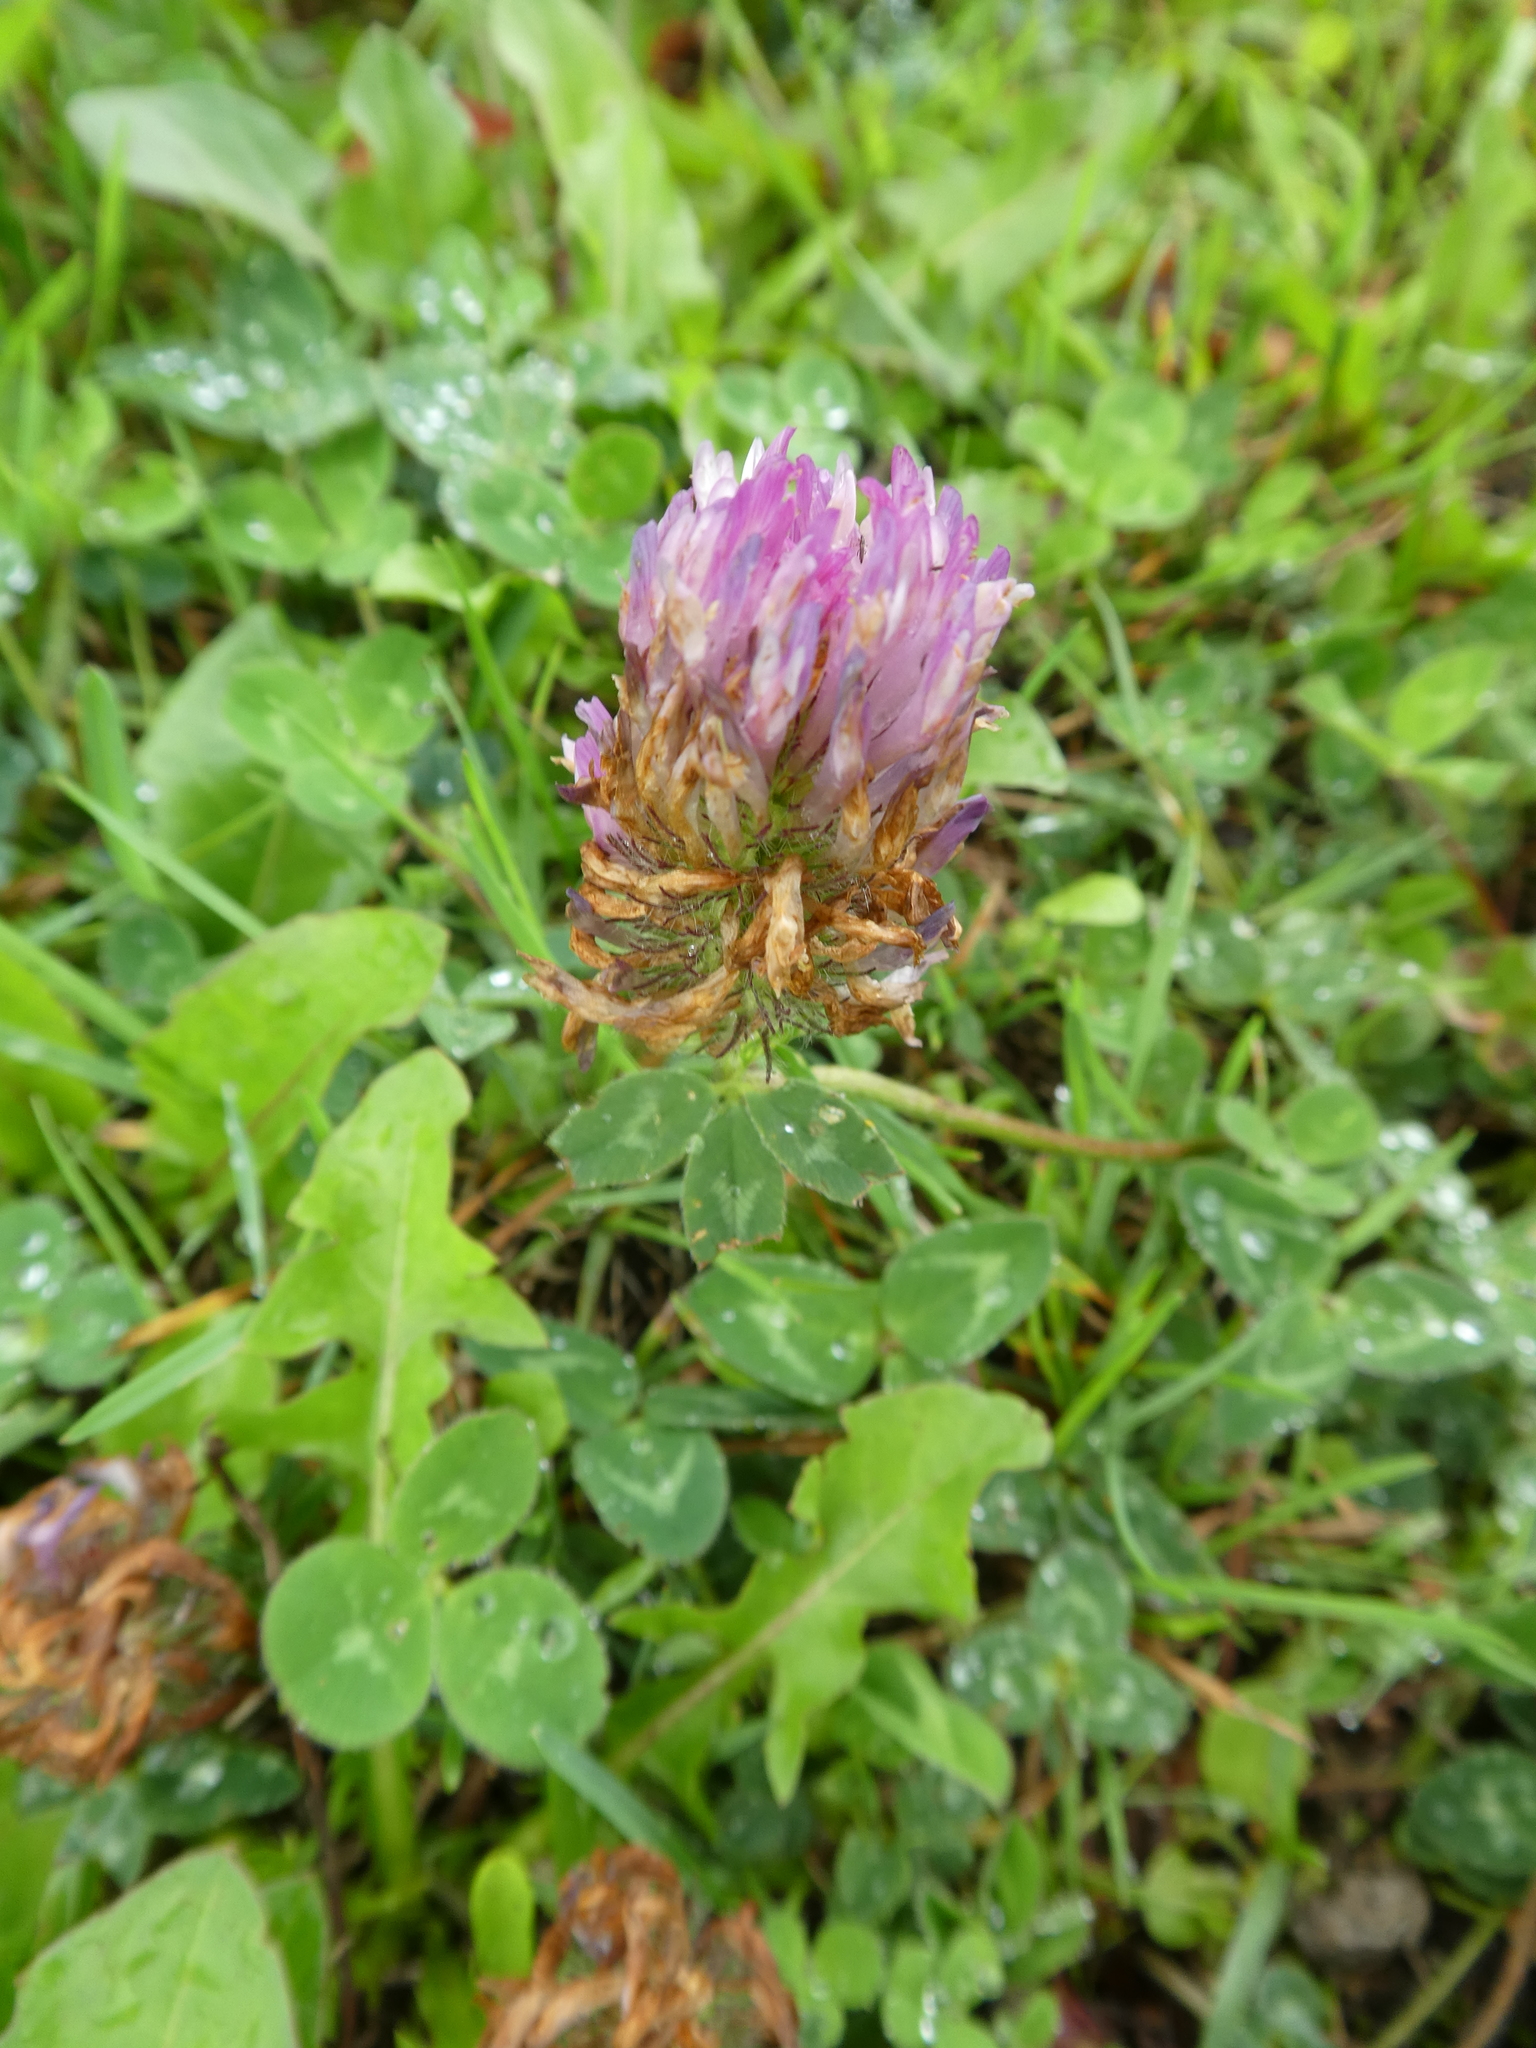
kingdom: Plantae
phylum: Tracheophyta
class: Magnoliopsida
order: Fabales
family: Fabaceae
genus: Trifolium
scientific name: Trifolium pratense
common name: Red clover
